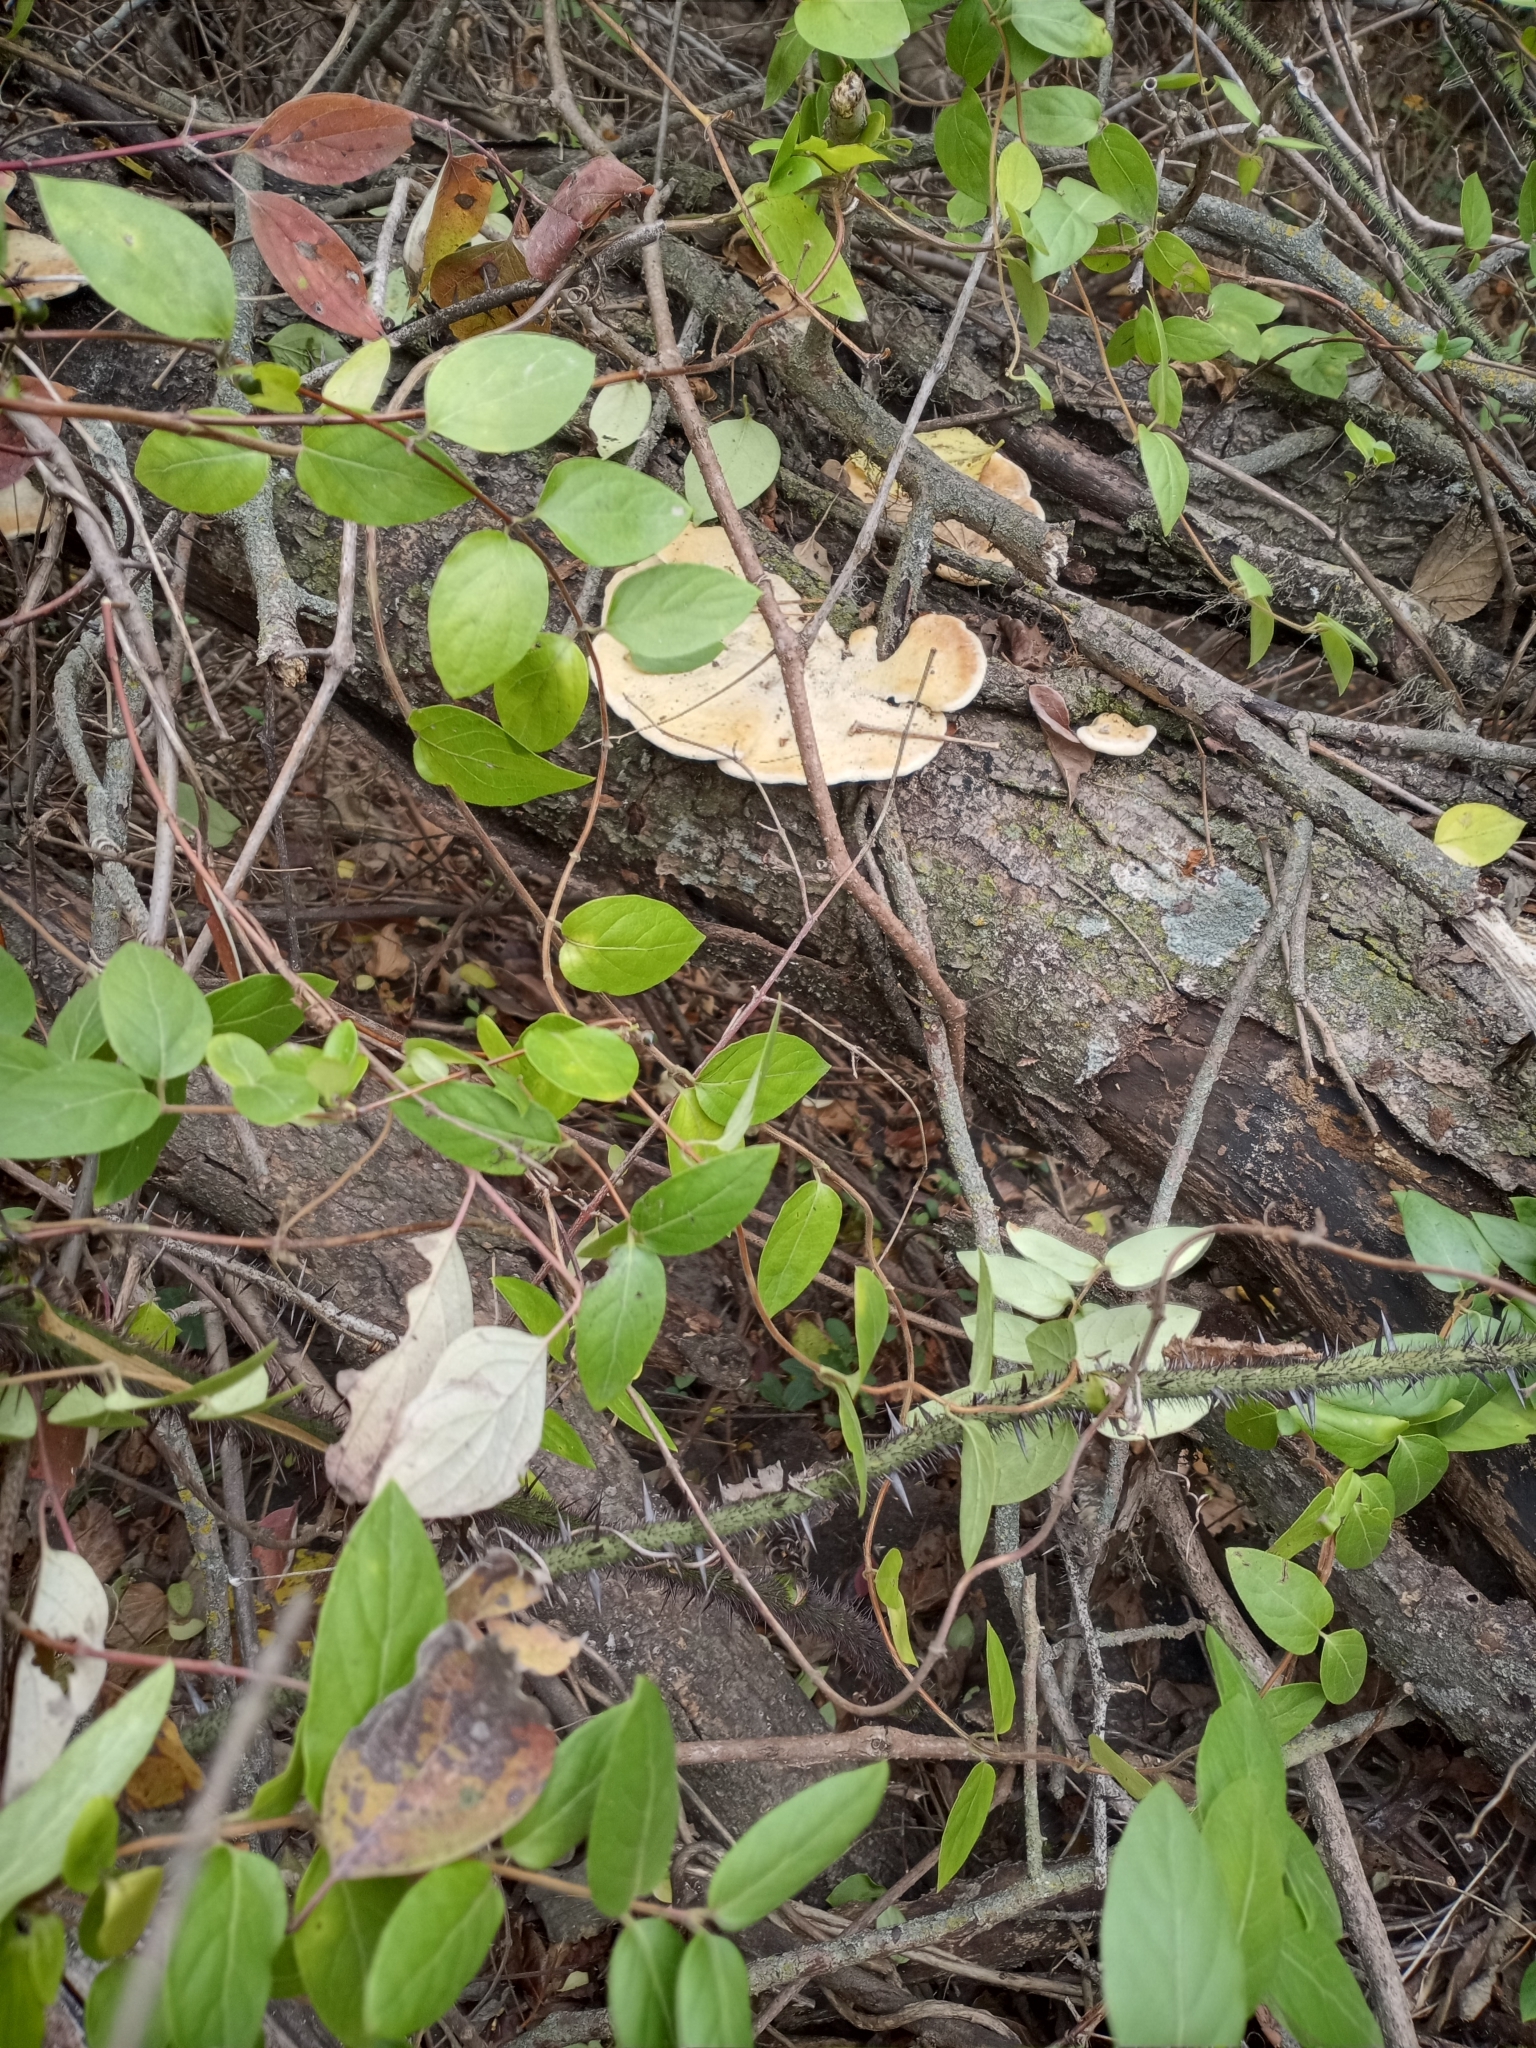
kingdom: Fungi
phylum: Basidiomycota
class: Agaricomycetes
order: Polyporales
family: Polyporaceae
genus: Trametes
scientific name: Trametes
